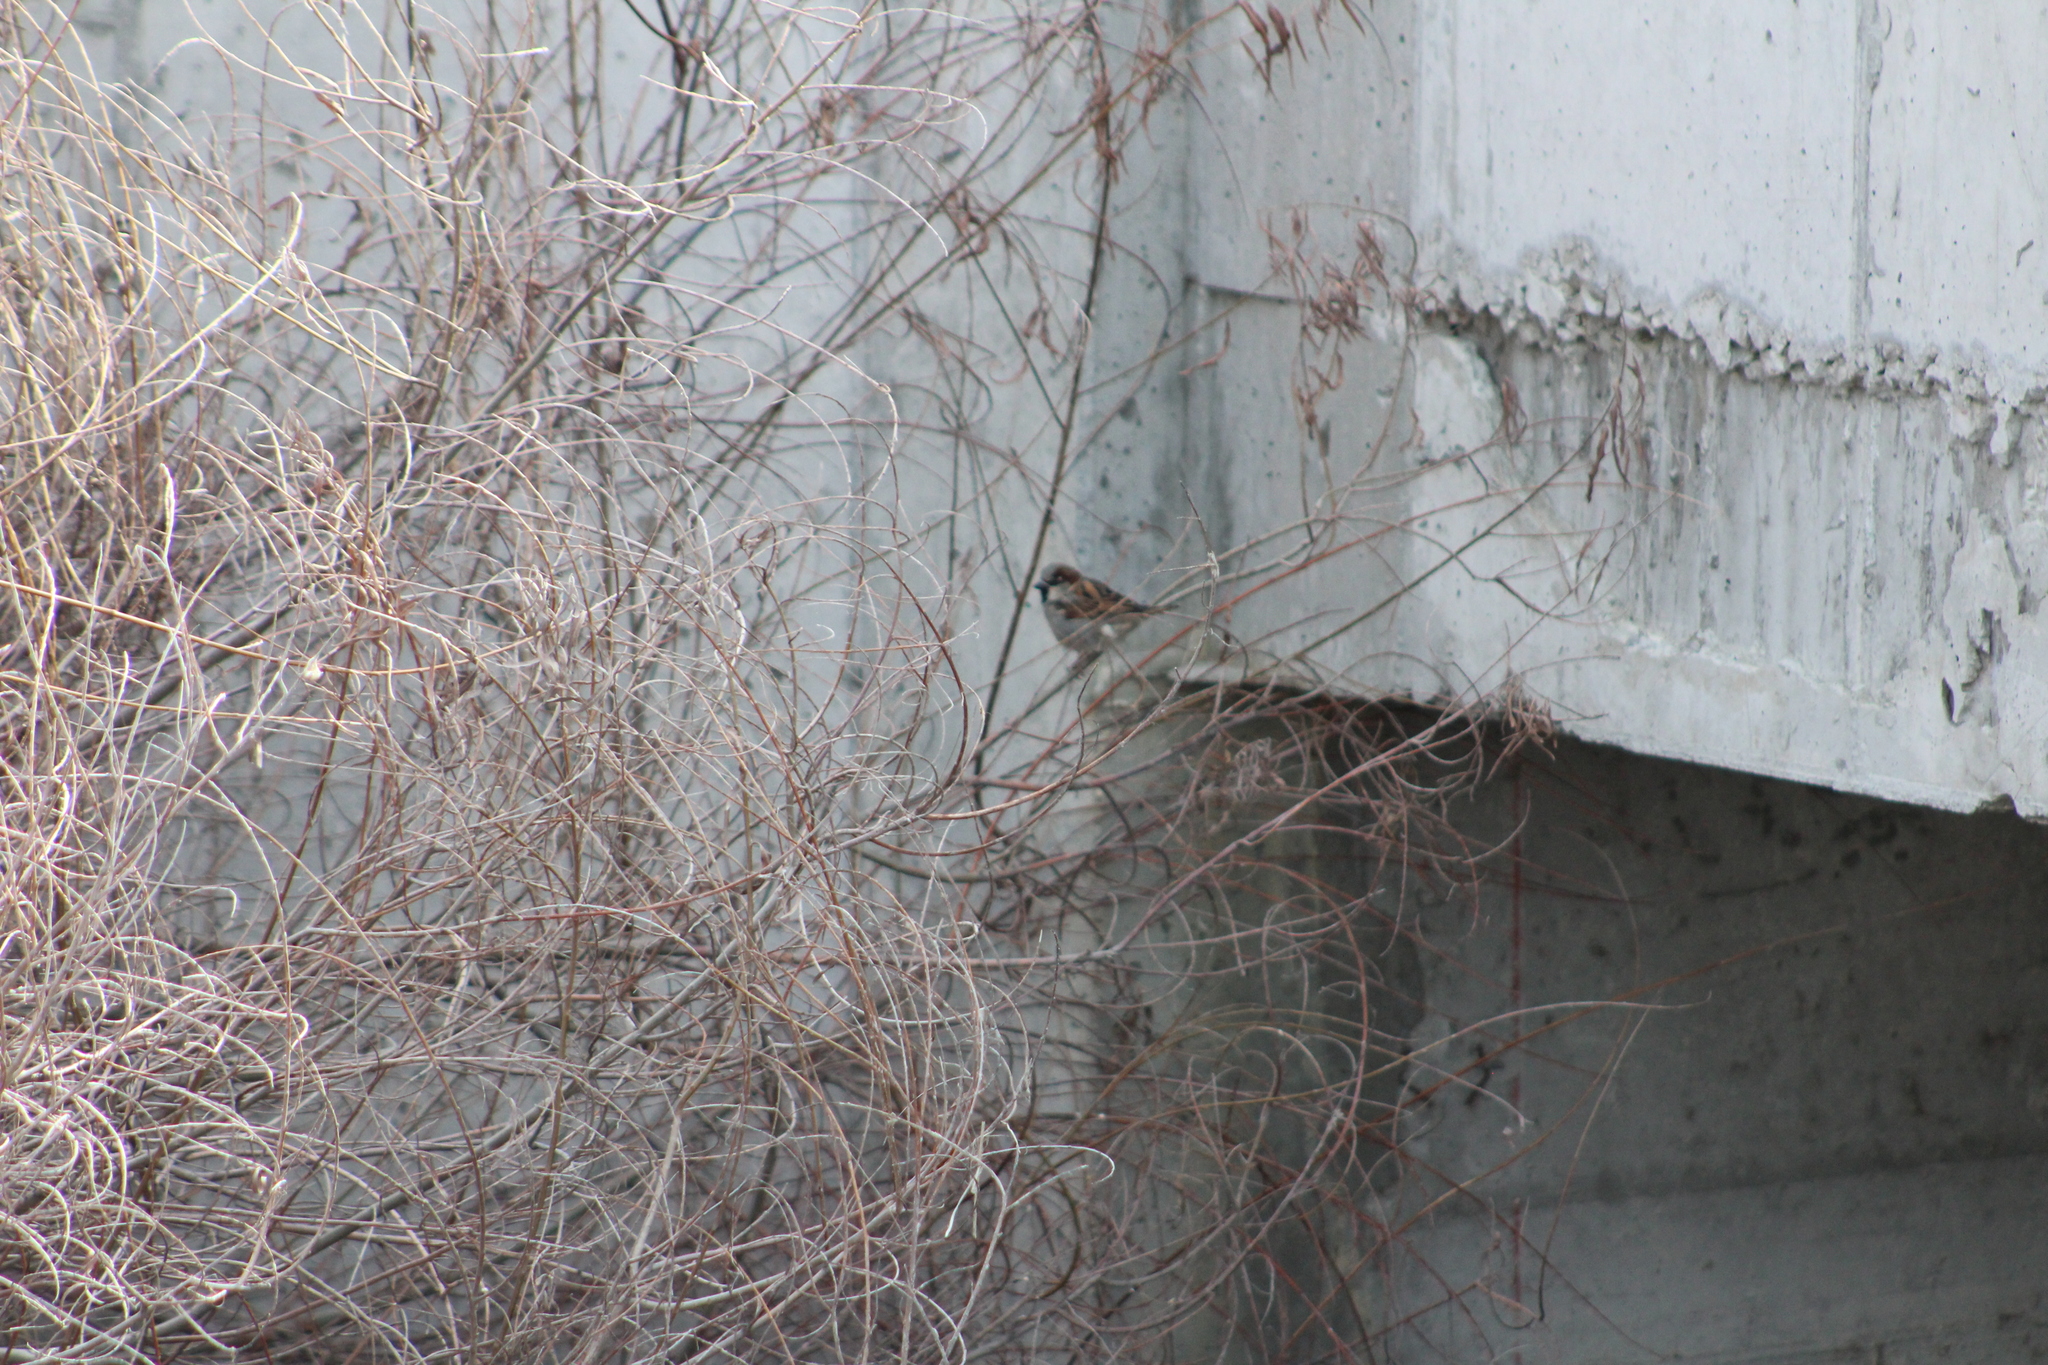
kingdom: Animalia
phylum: Chordata
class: Aves
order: Passeriformes
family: Passeridae
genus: Passer
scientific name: Passer domesticus
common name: House sparrow
